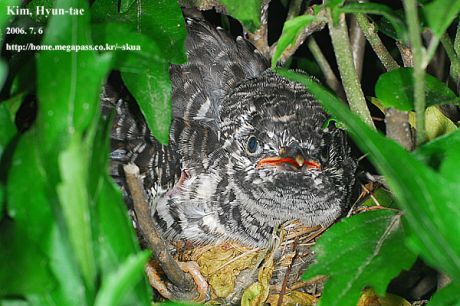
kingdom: Animalia
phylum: Chordata
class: Aves
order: Cuculiformes
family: Cuculidae
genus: Cuculus
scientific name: Cuculus canorus
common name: Common cuckoo
